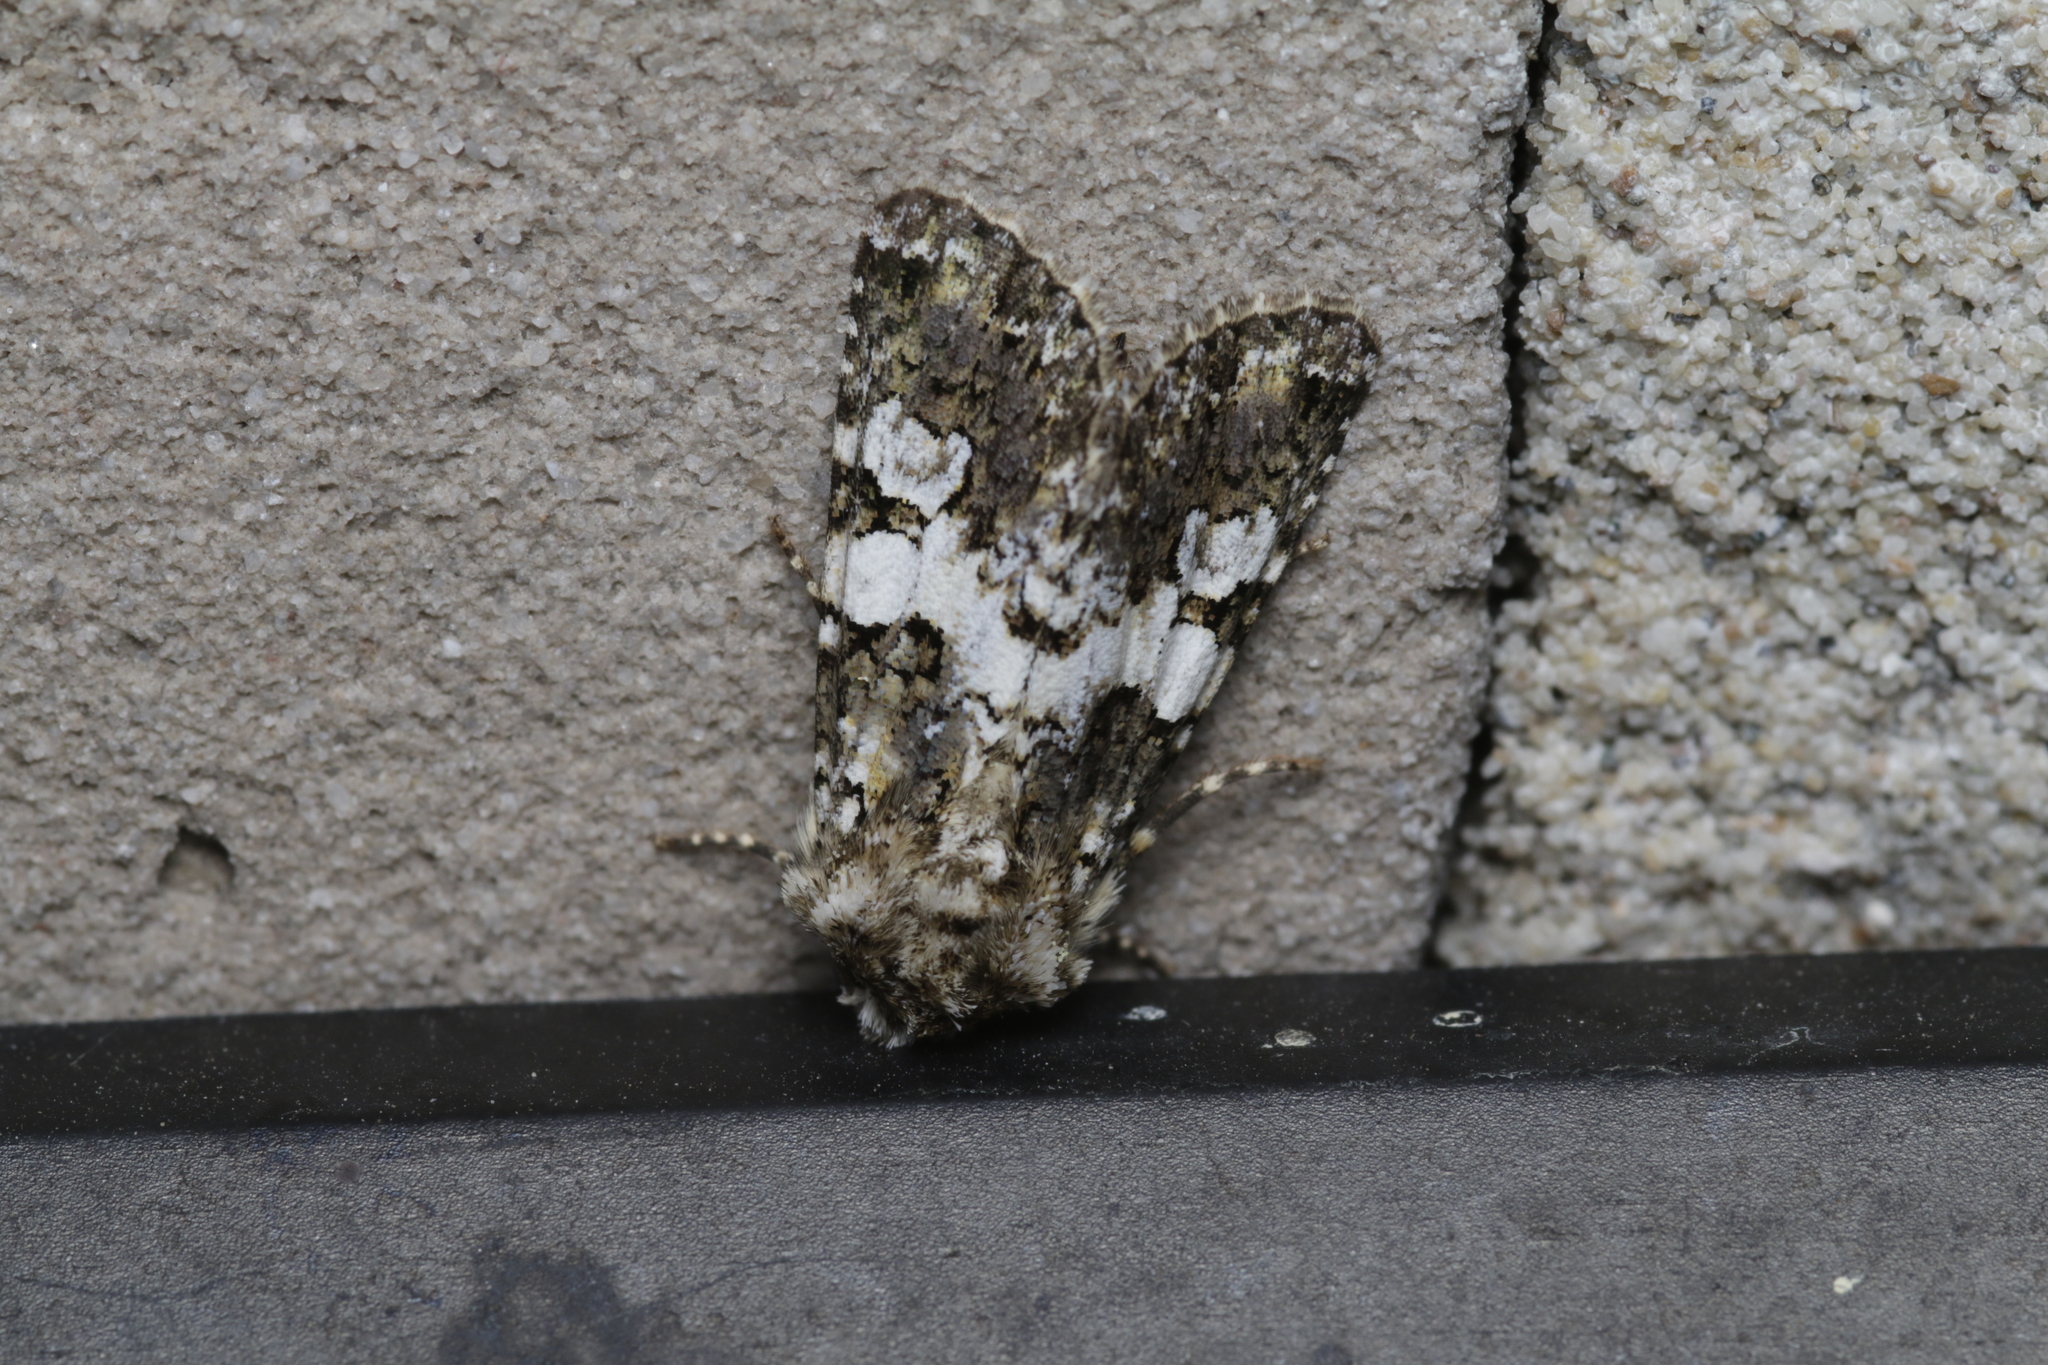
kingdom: Animalia
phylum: Arthropoda
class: Insecta
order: Lepidoptera
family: Noctuidae
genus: Hadena
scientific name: Hadena compta
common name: Varied coronet
